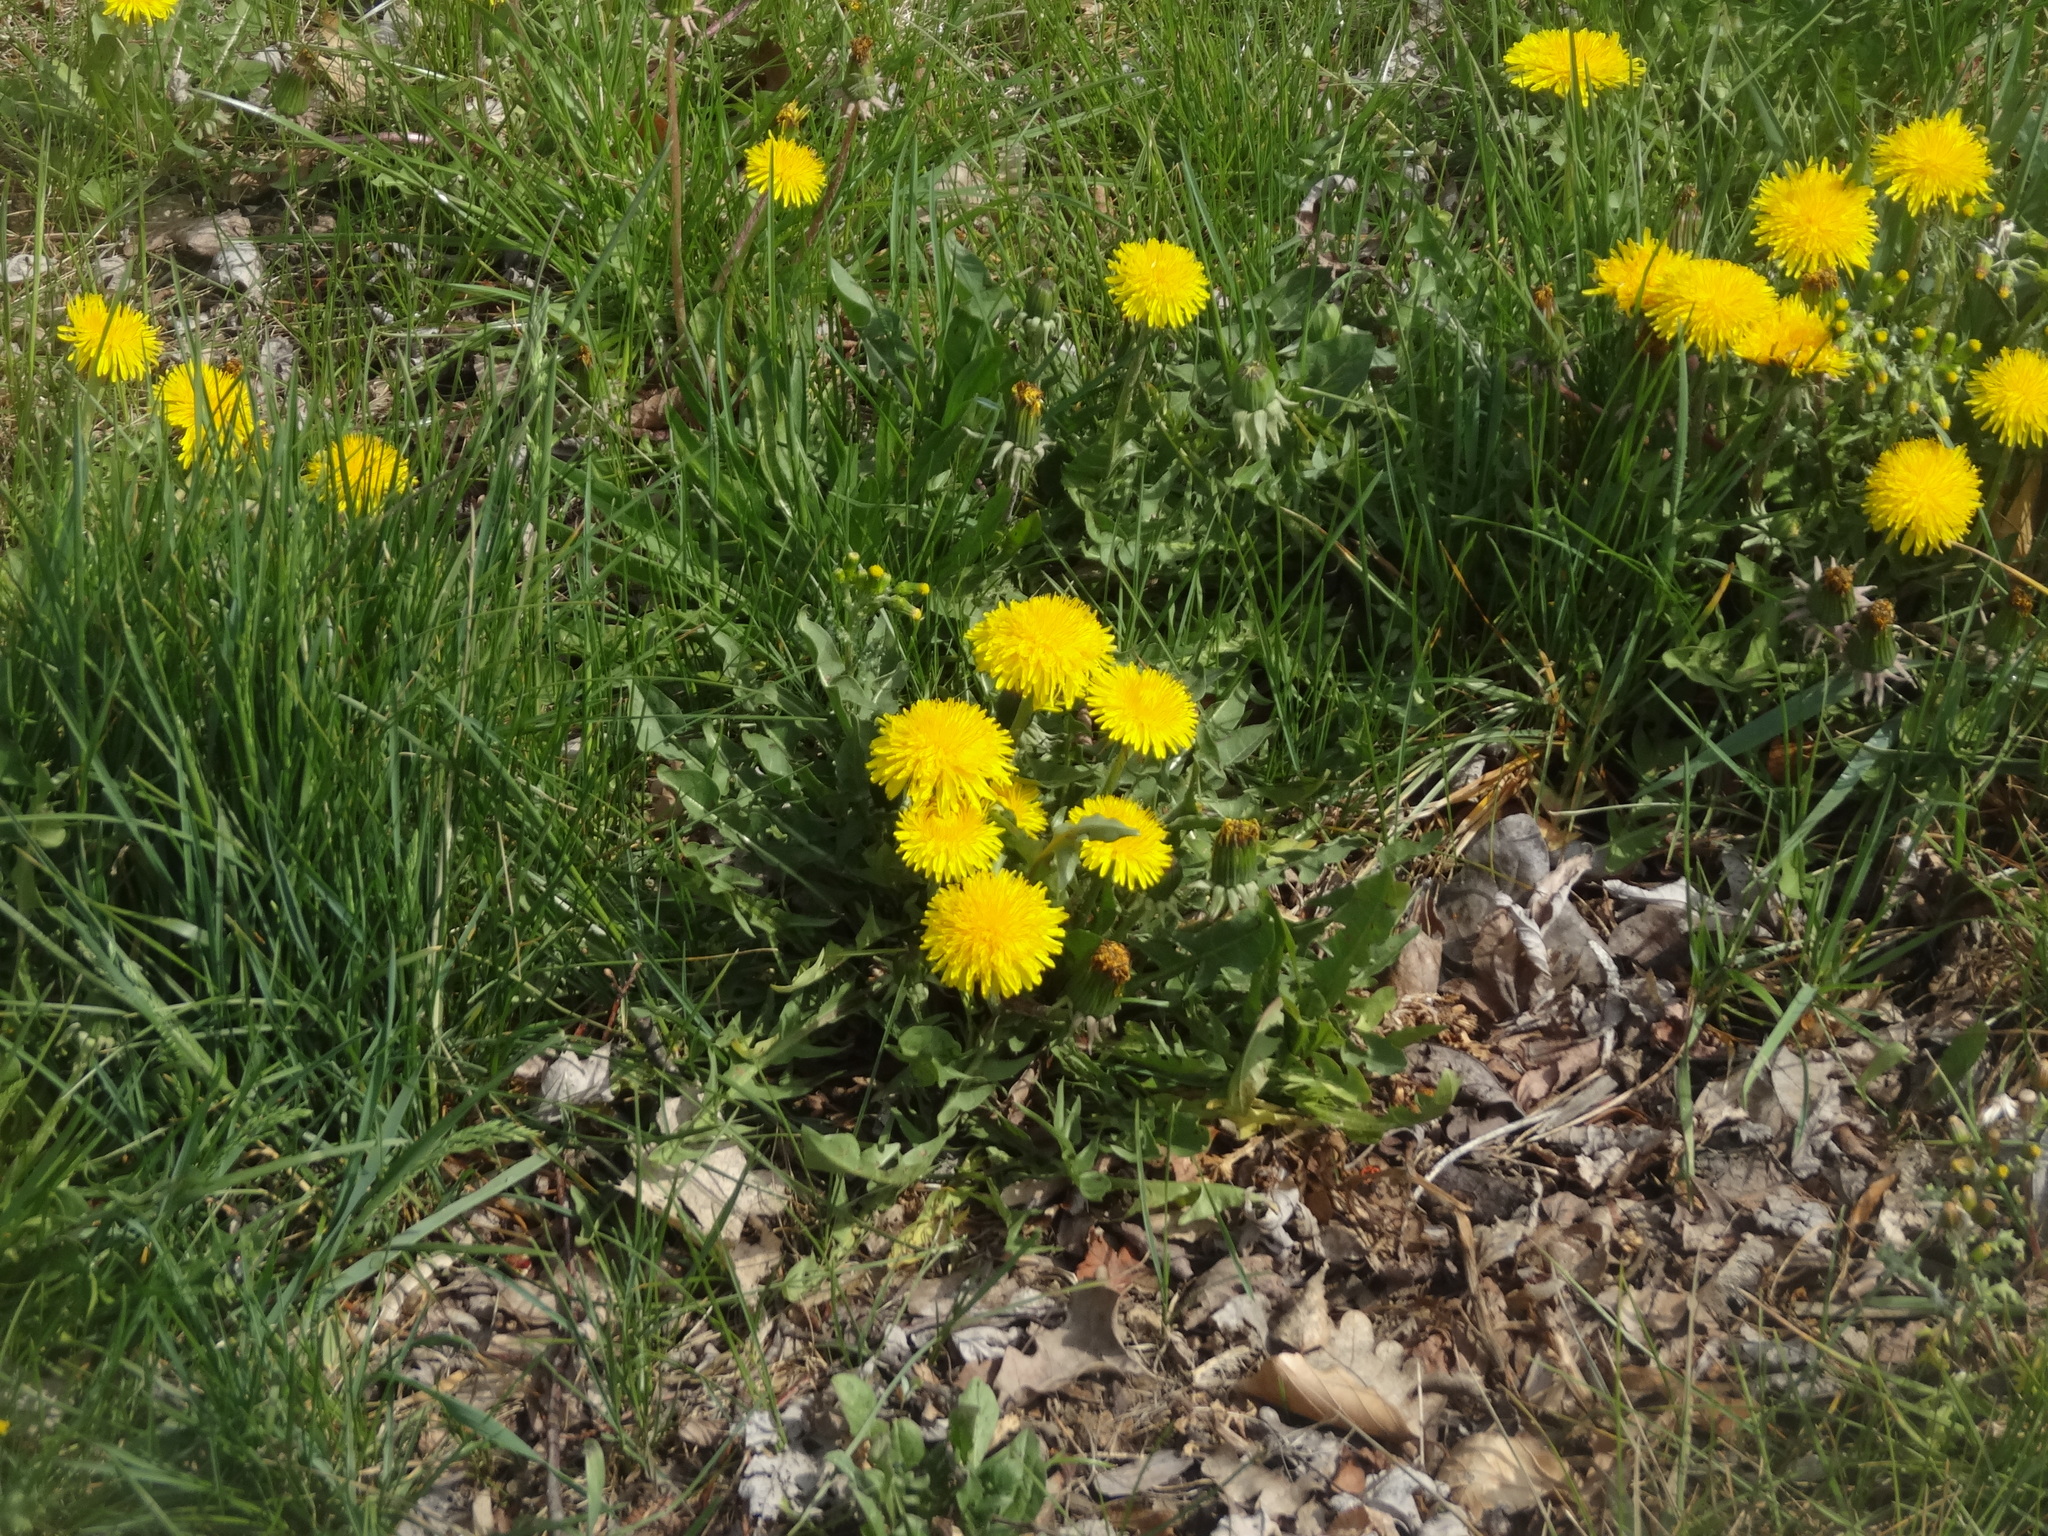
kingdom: Plantae
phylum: Tracheophyta
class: Magnoliopsida
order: Asterales
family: Asteraceae
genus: Taraxacum
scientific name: Taraxacum officinale
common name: Common dandelion
